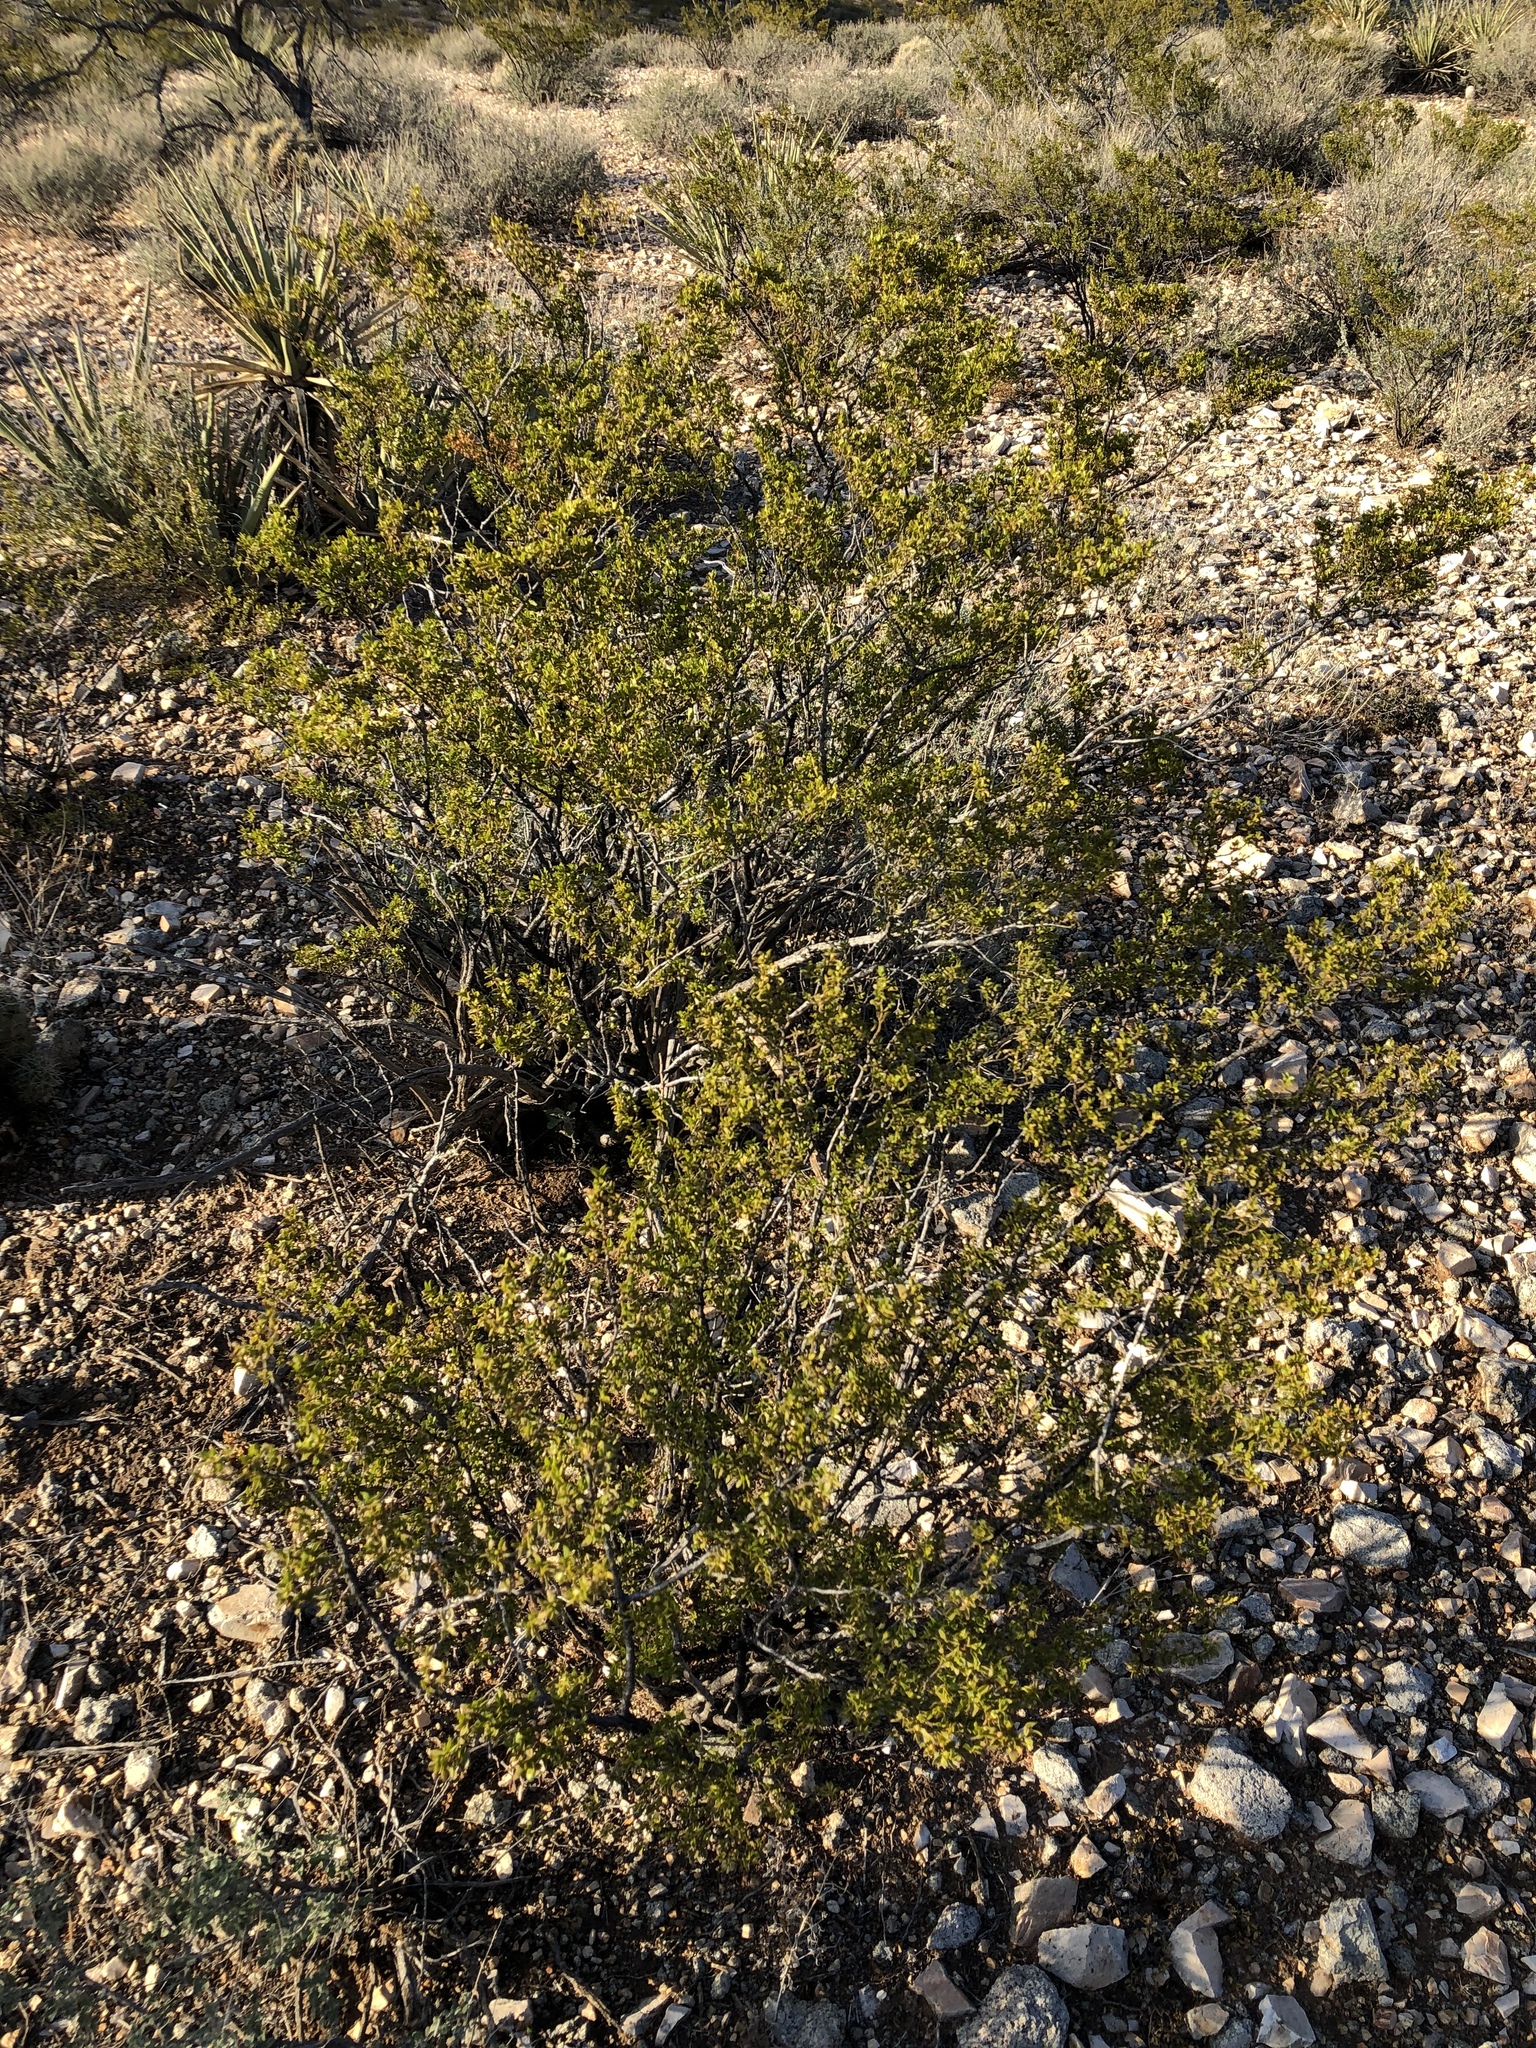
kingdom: Plantae
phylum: Tracheophyta
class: Magnoliopsida
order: Zygophyllales
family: Zygophyllaceae
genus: Larrea
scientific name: Larrea tridentata
